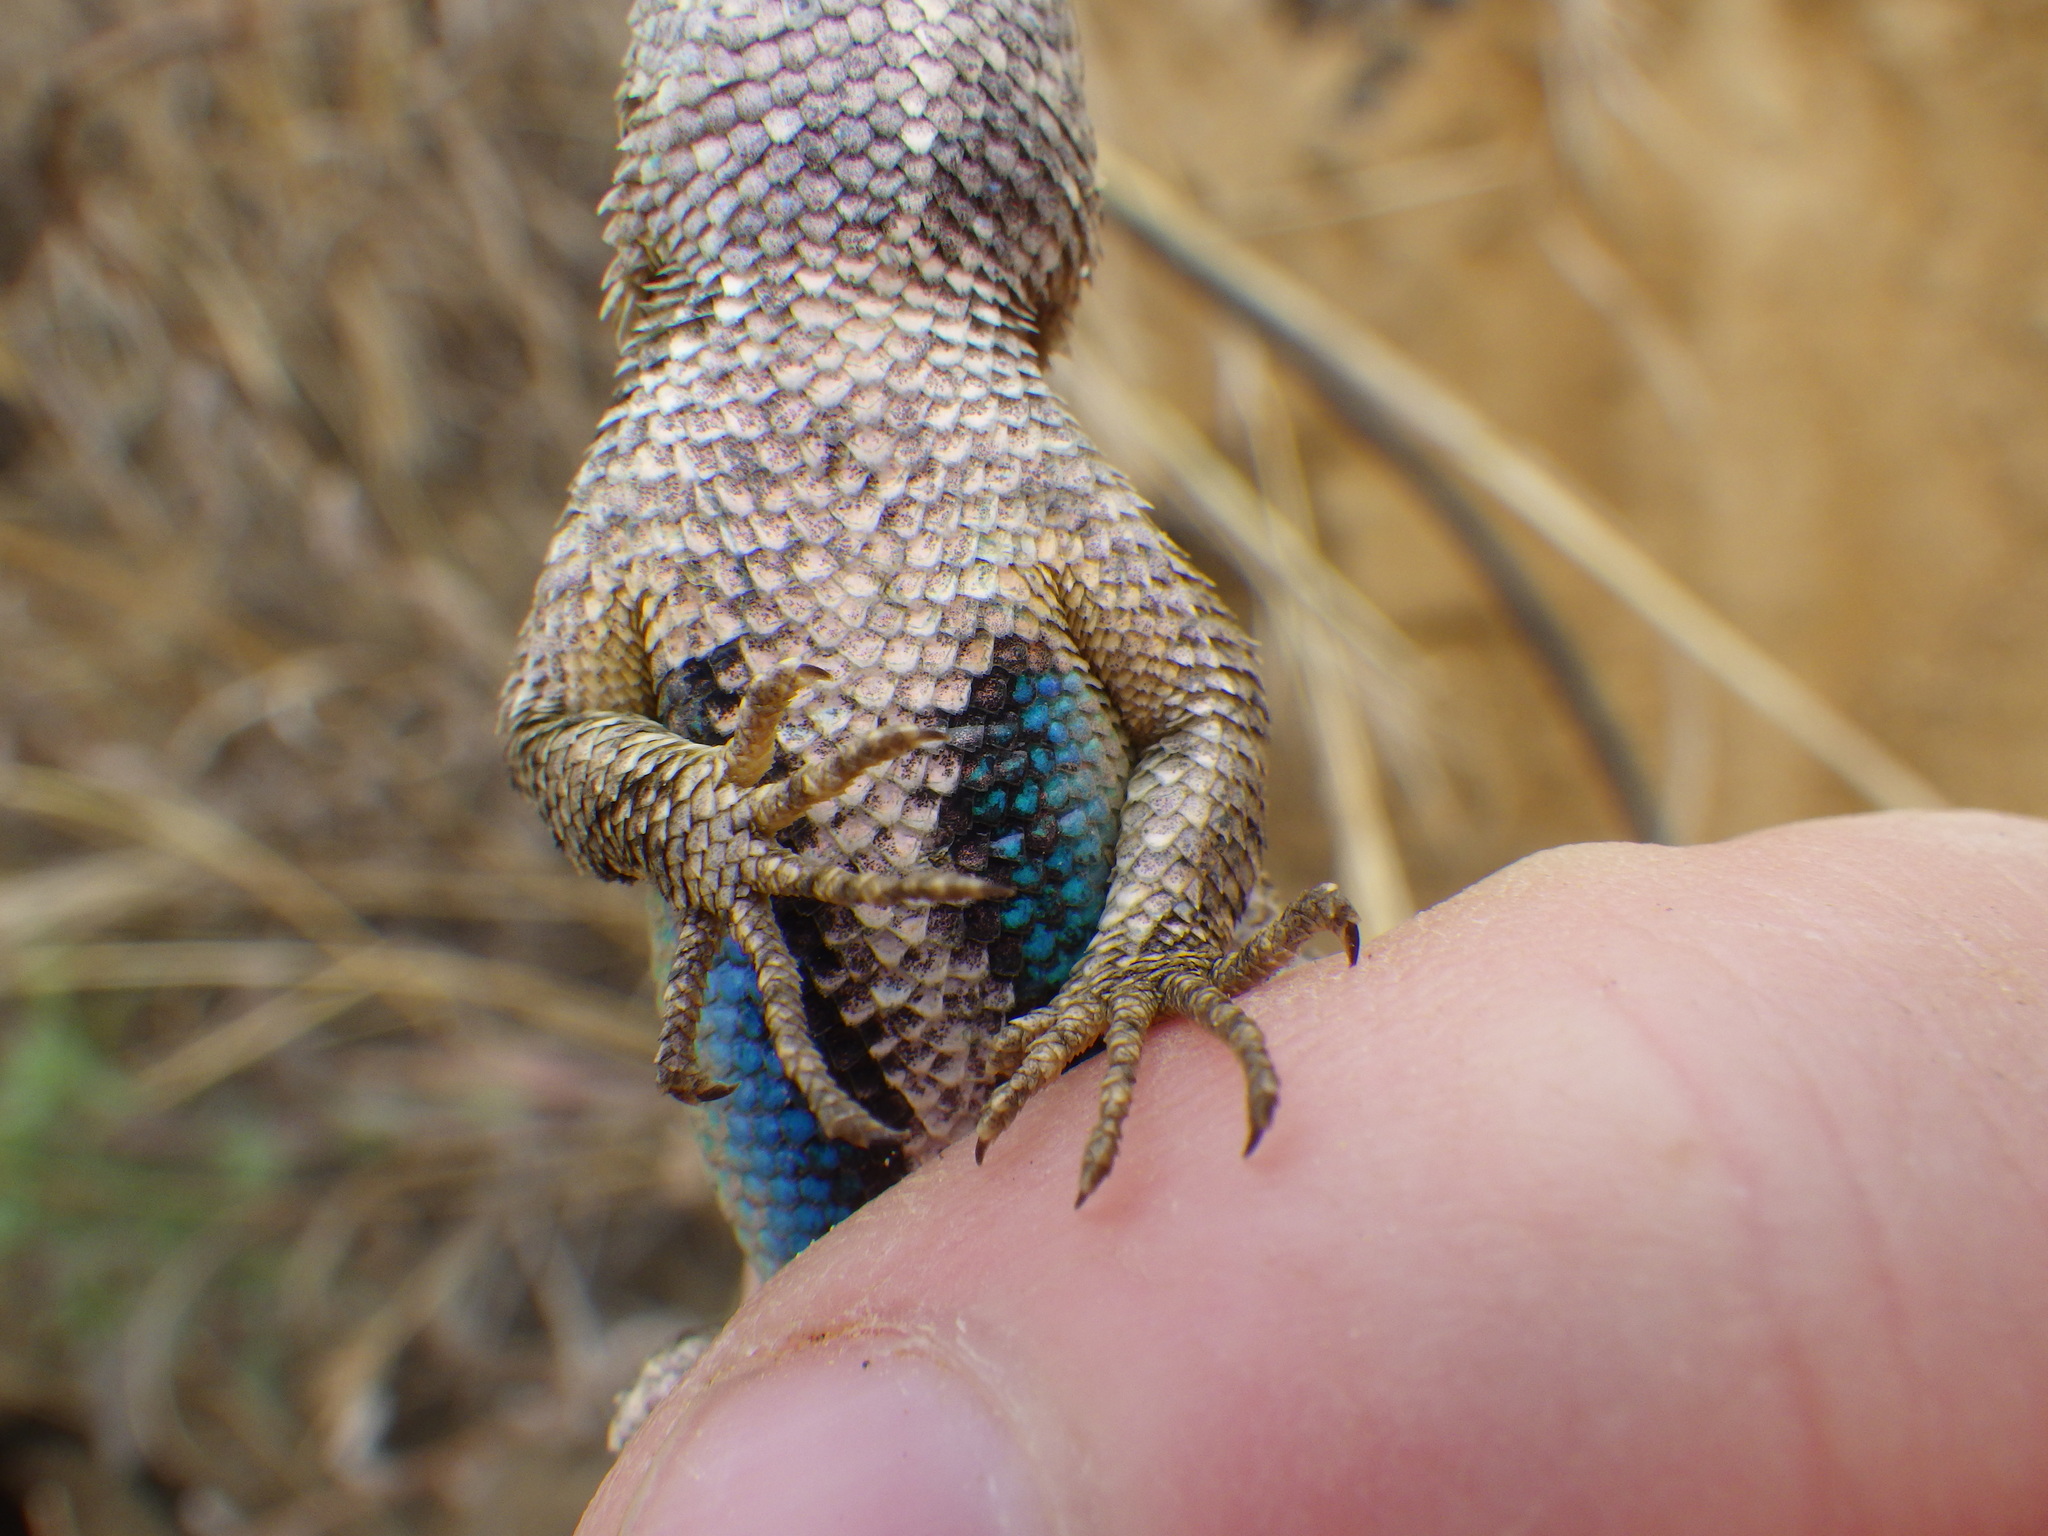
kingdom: Animalia
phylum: Chordata
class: Squamata
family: Phrynosomatidae
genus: Sceloporus
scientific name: Sceloporus occidentalis
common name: Western fence lizard
